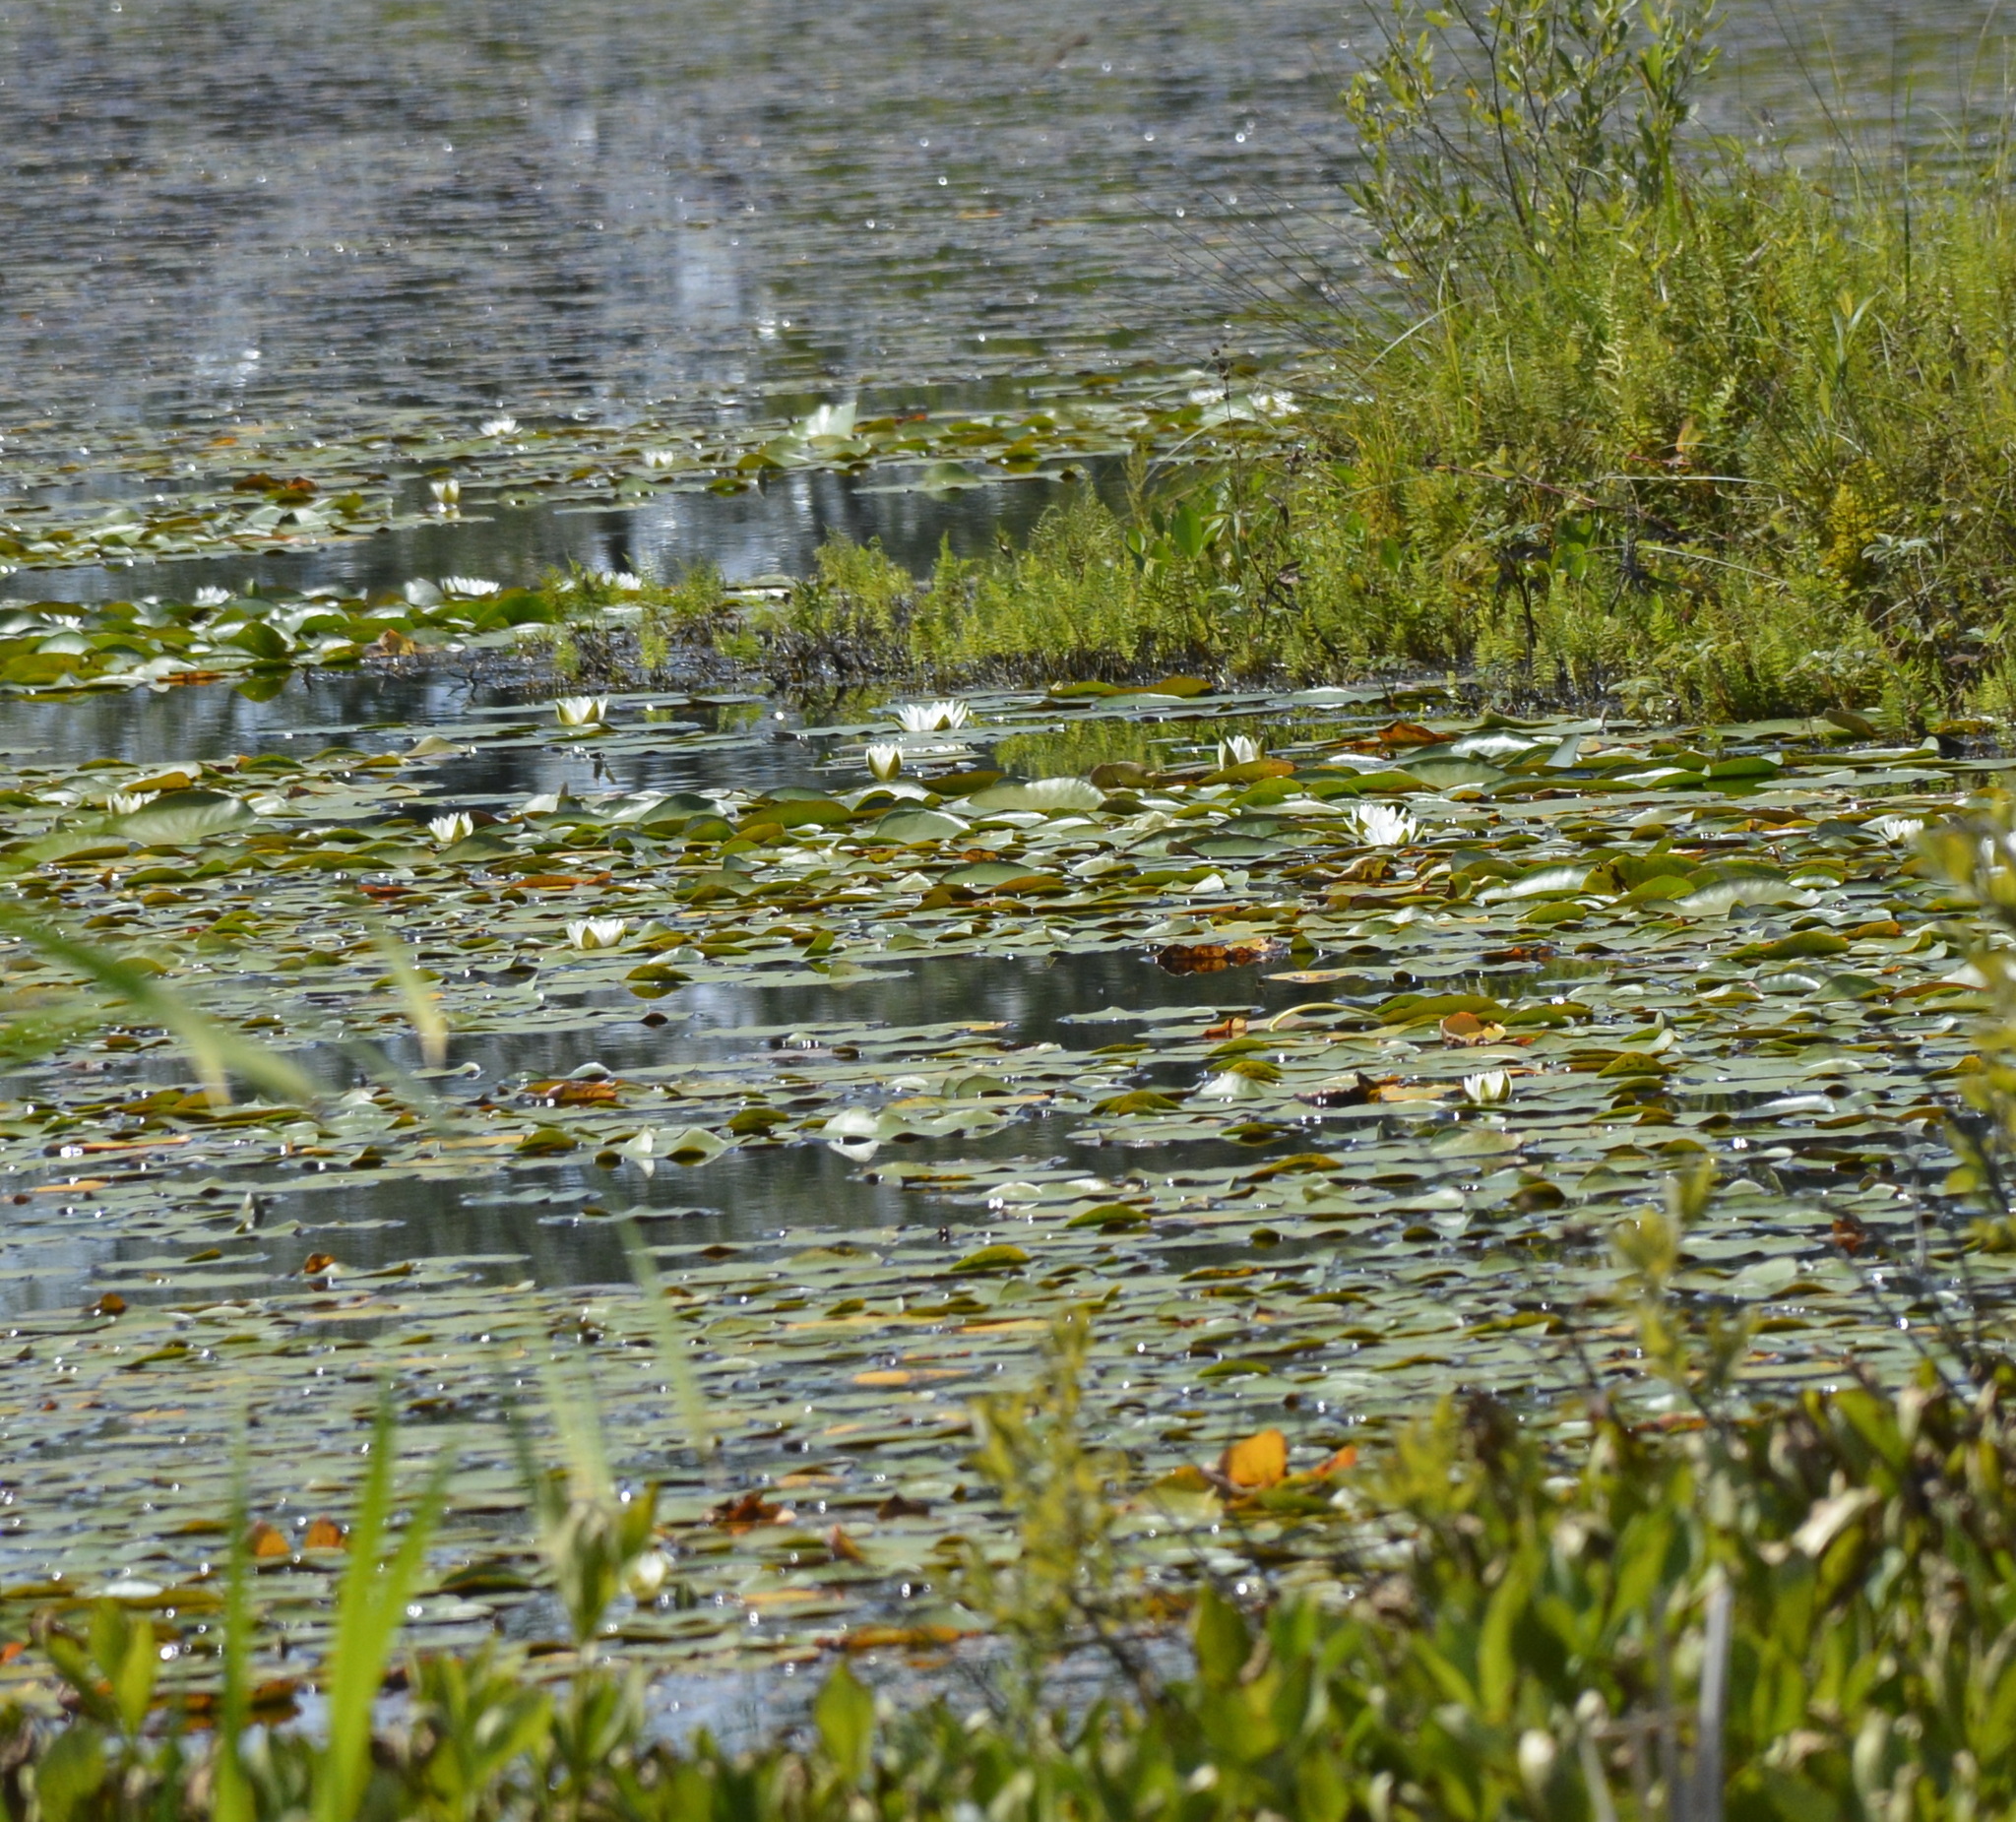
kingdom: Plantae
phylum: Tracheophyta
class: Magnoliopsida
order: Nymphaeales
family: Nymphaeaceae
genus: Nymphaea
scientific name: Nymphaea candida
